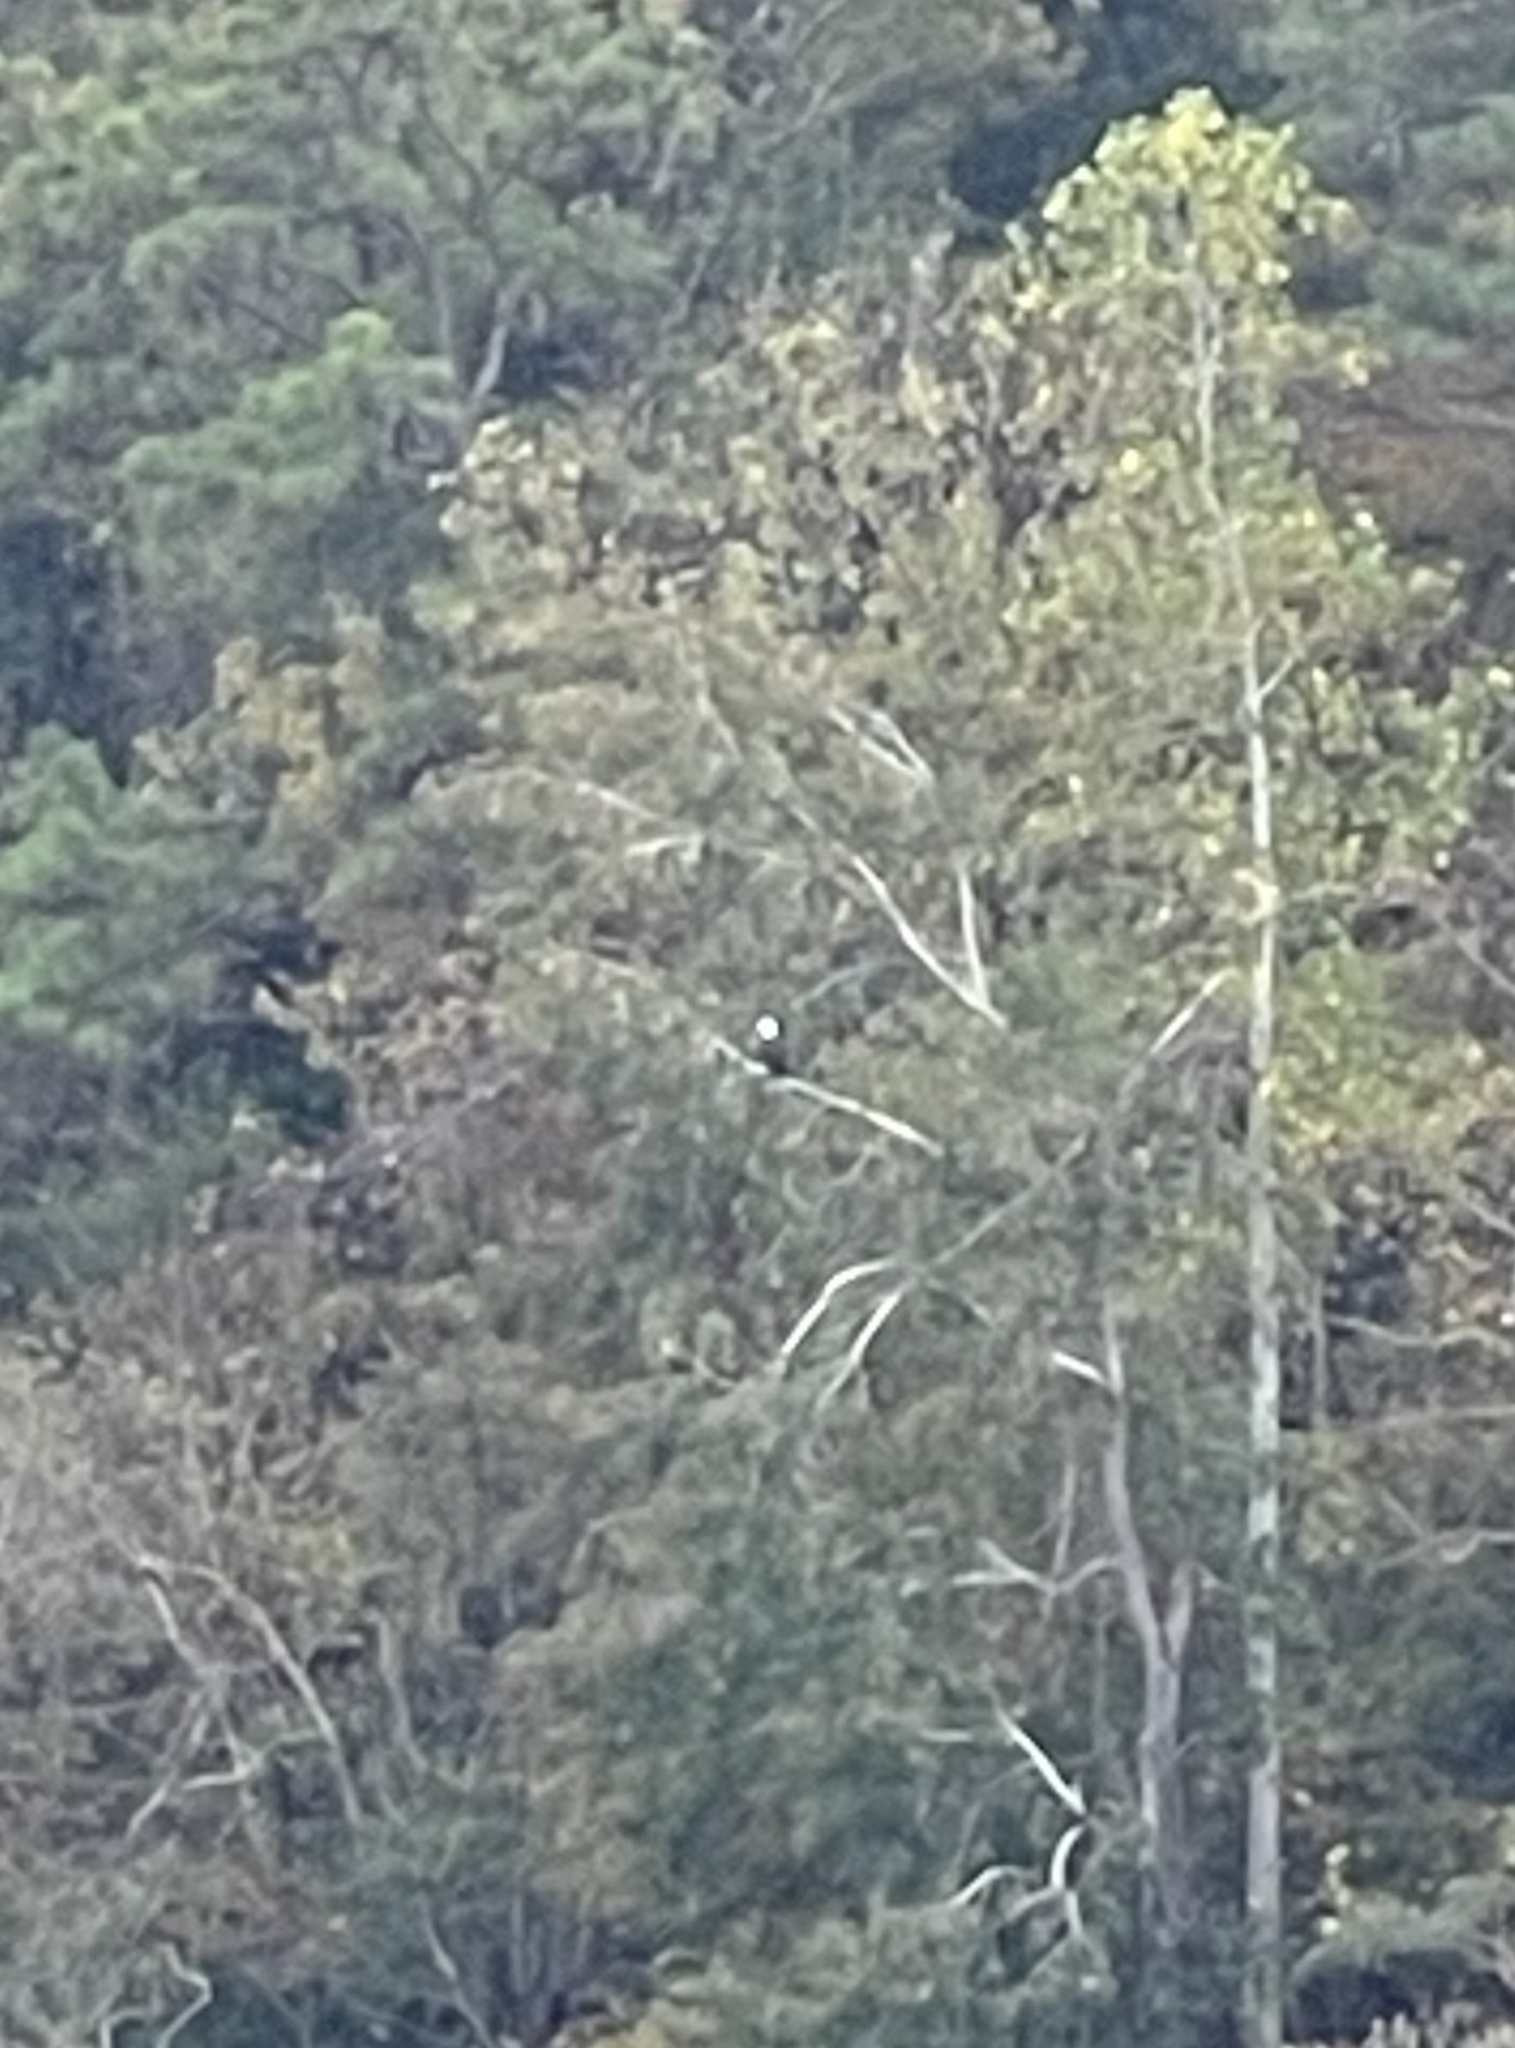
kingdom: Animalia
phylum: Chordata
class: Aves
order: Accipitriformes
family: Accipitridae
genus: Haliaeetus
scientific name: Haliaeetus leucocephalus
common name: Bald eagle
